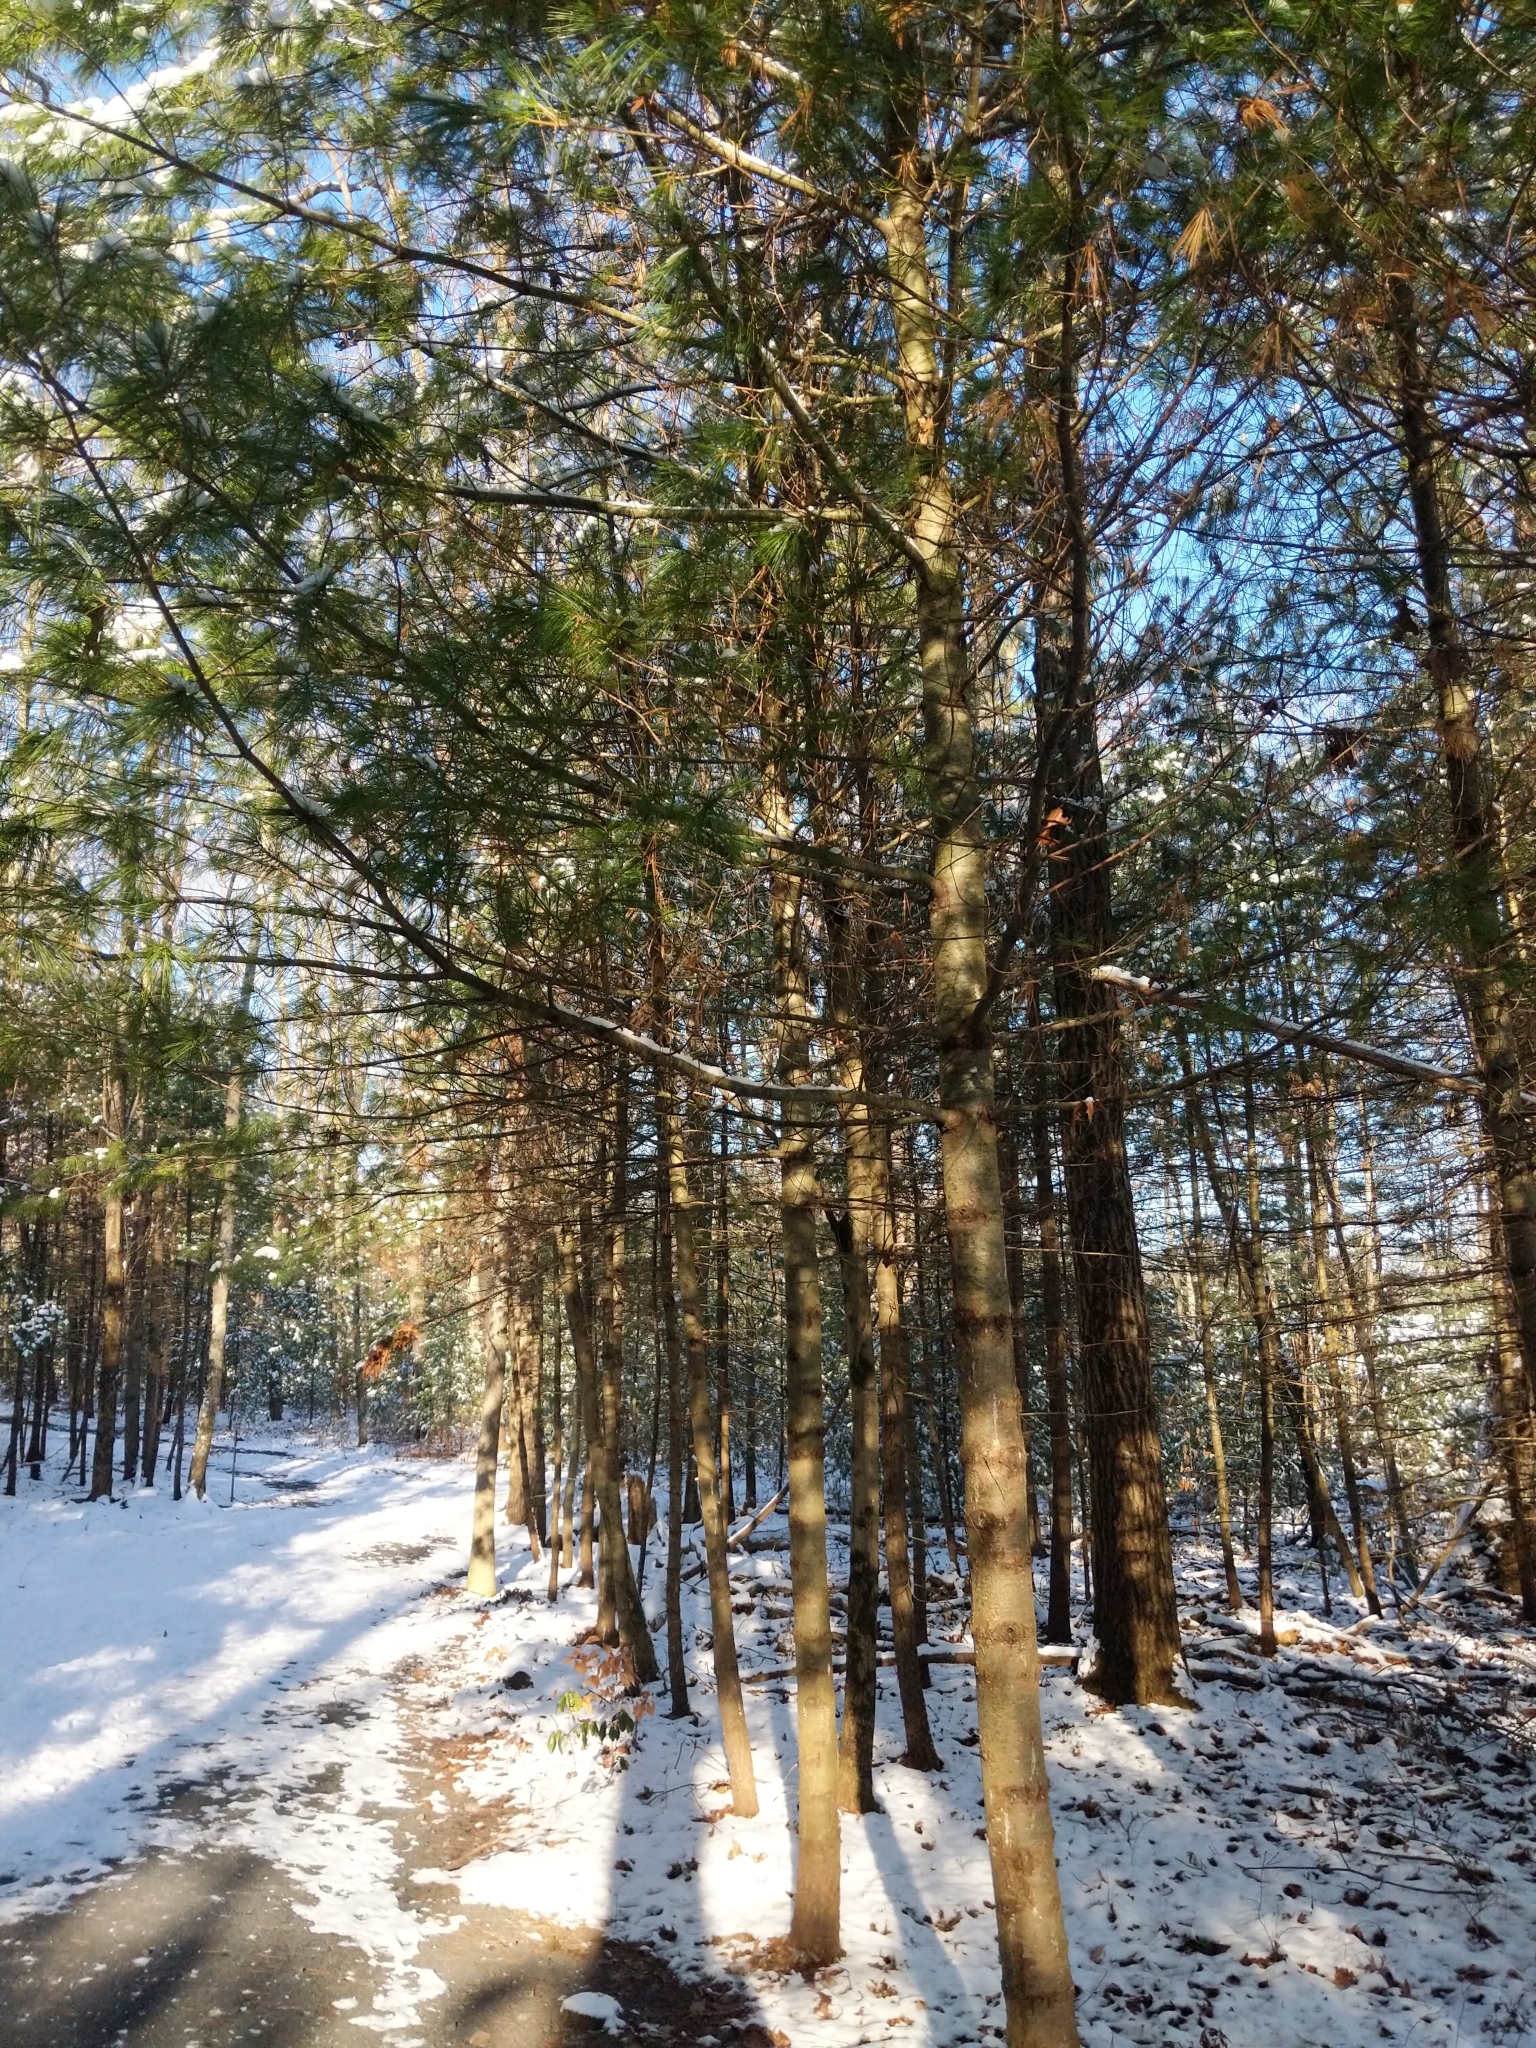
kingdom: Plantae
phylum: Tracheophyta
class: Pinopsida
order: Pinales
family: Pinaceae
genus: Pinus
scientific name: Pinus strobus
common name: Weymouth pine
